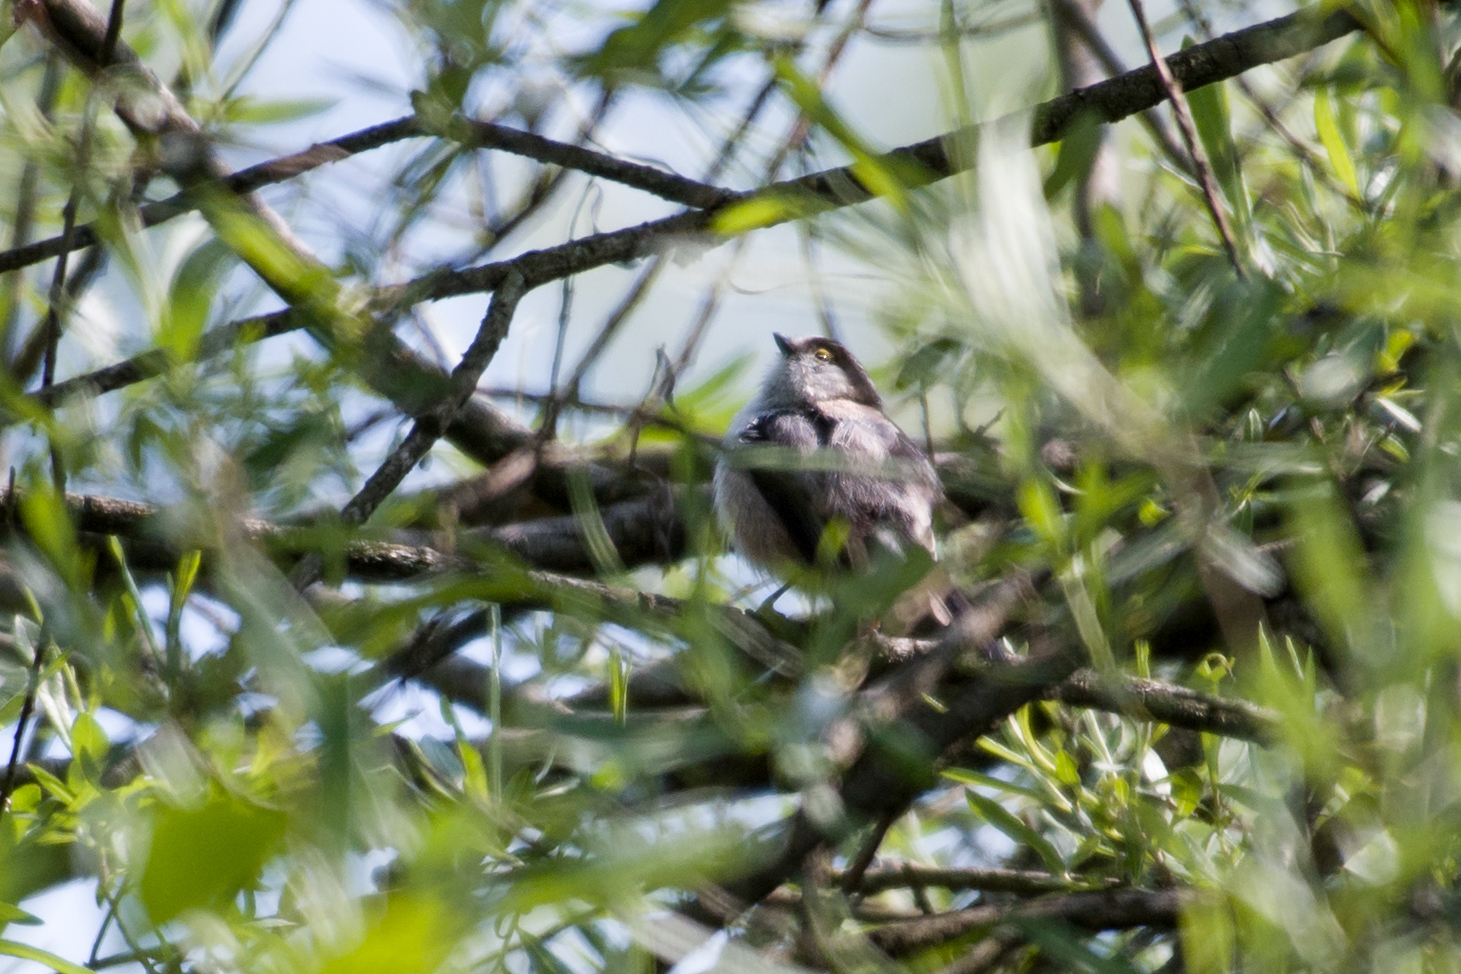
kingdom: Animalia
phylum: Chordata
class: Aves
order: Passeriformes
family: Aegithalidae
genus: Aegithalos
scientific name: Aegithalos caudatus
